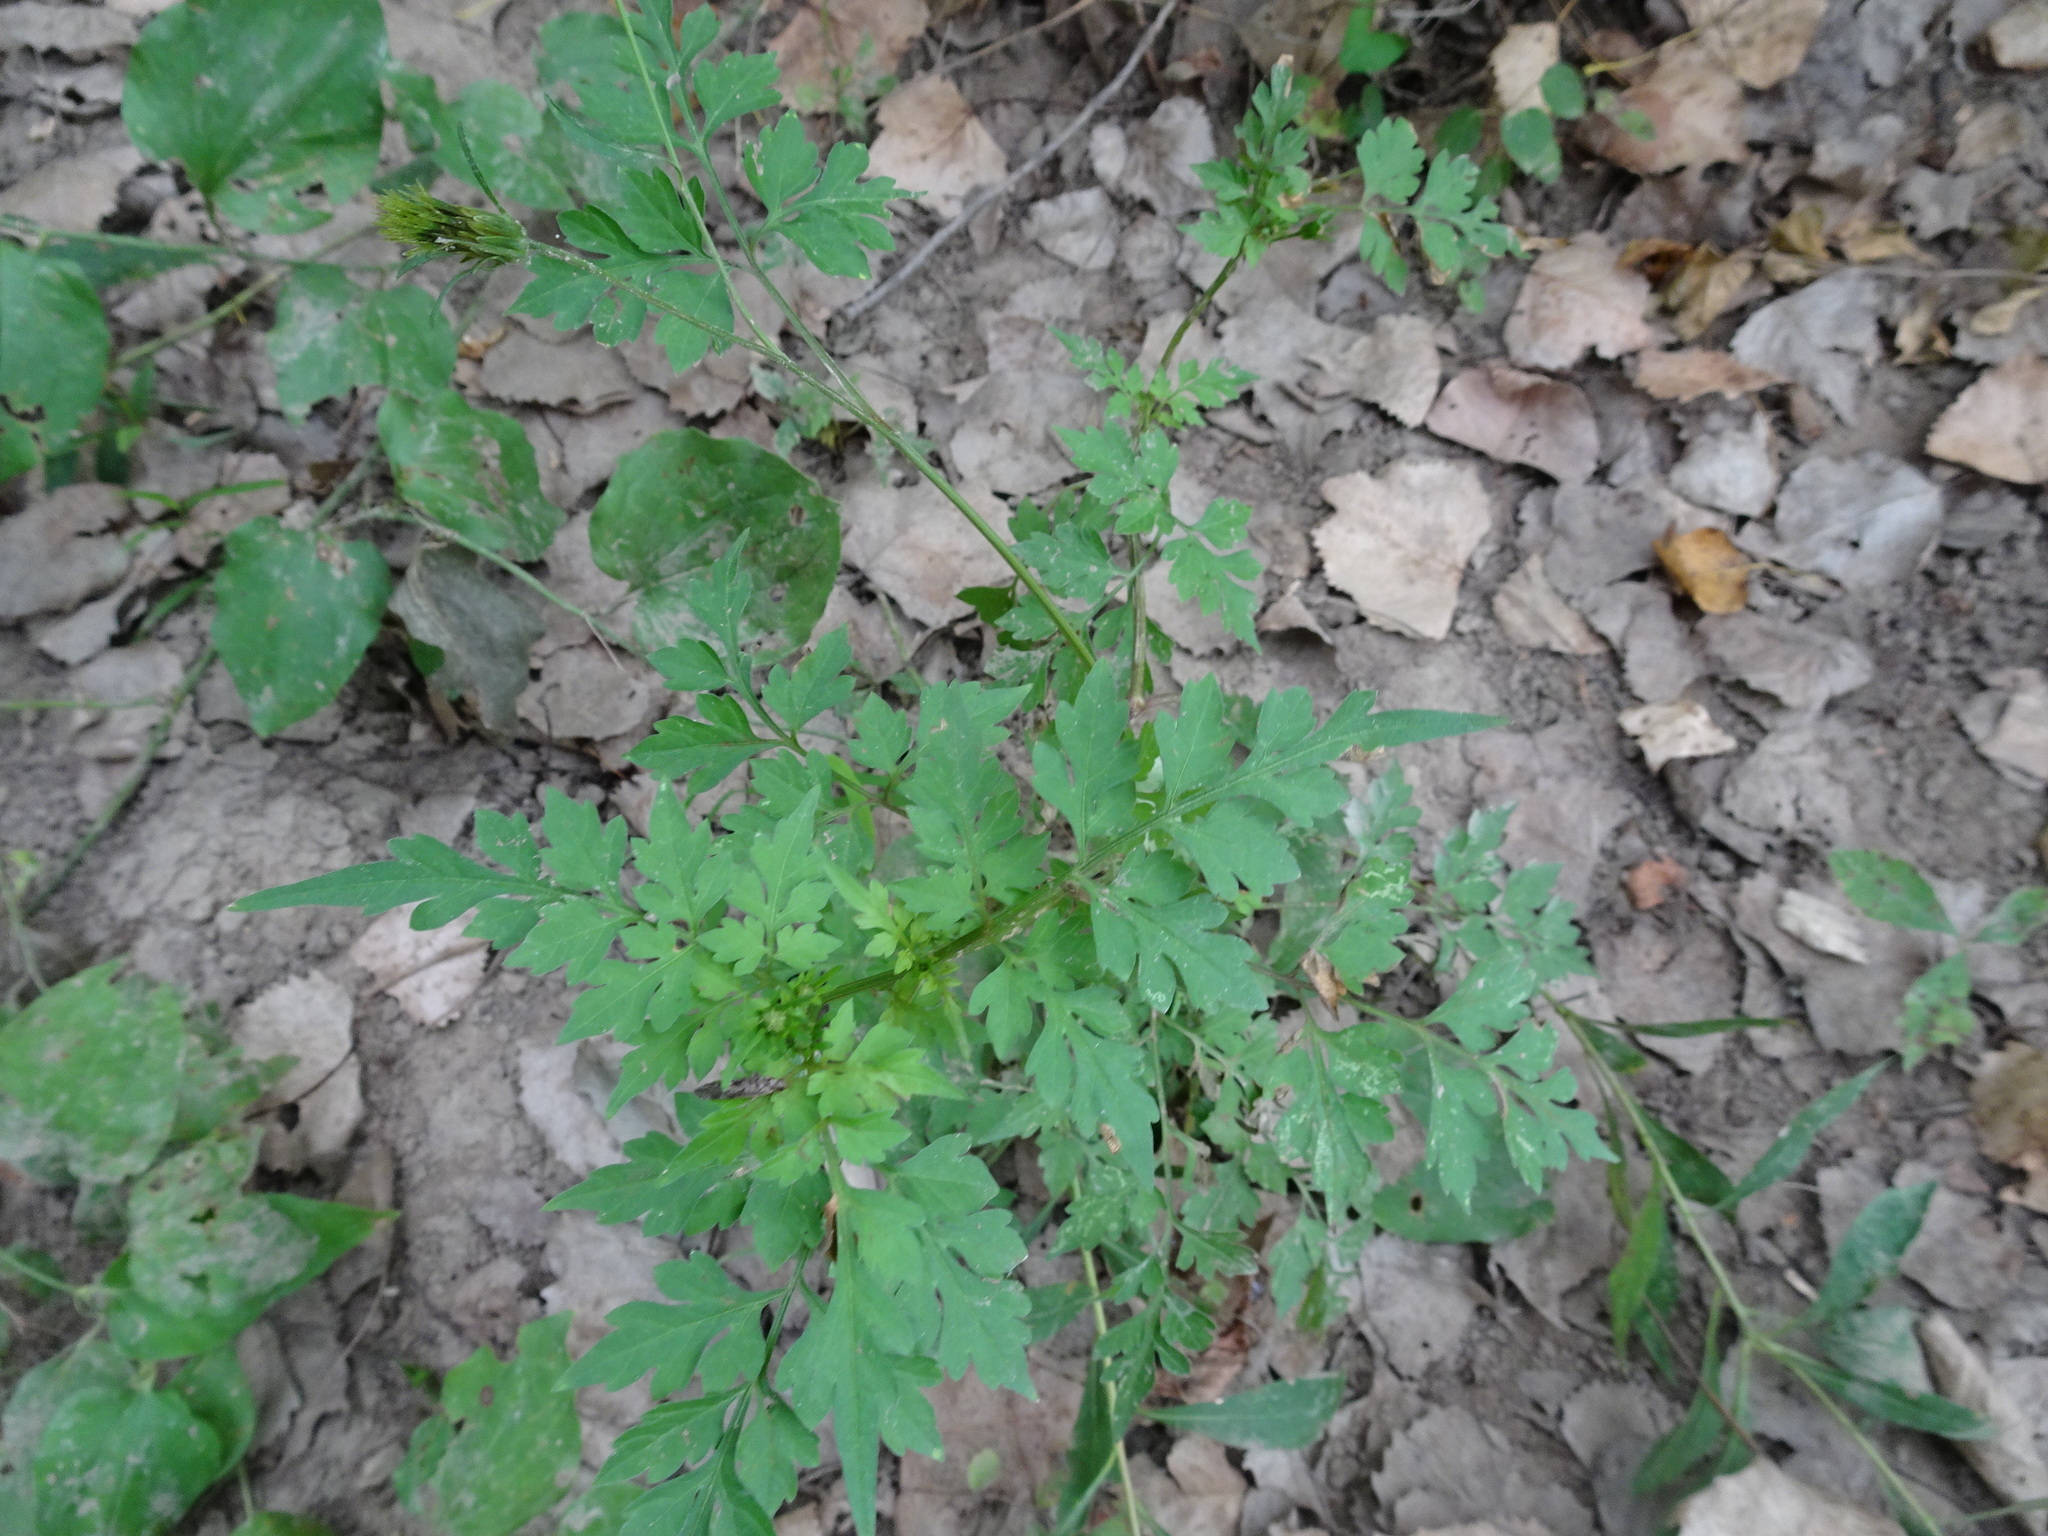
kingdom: Plantae
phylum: Tracheophyta
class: Magnoliopsida
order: Asterales
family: Asteraceae
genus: Bidens
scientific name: Bidens bipinnata
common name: Spanish-needles
